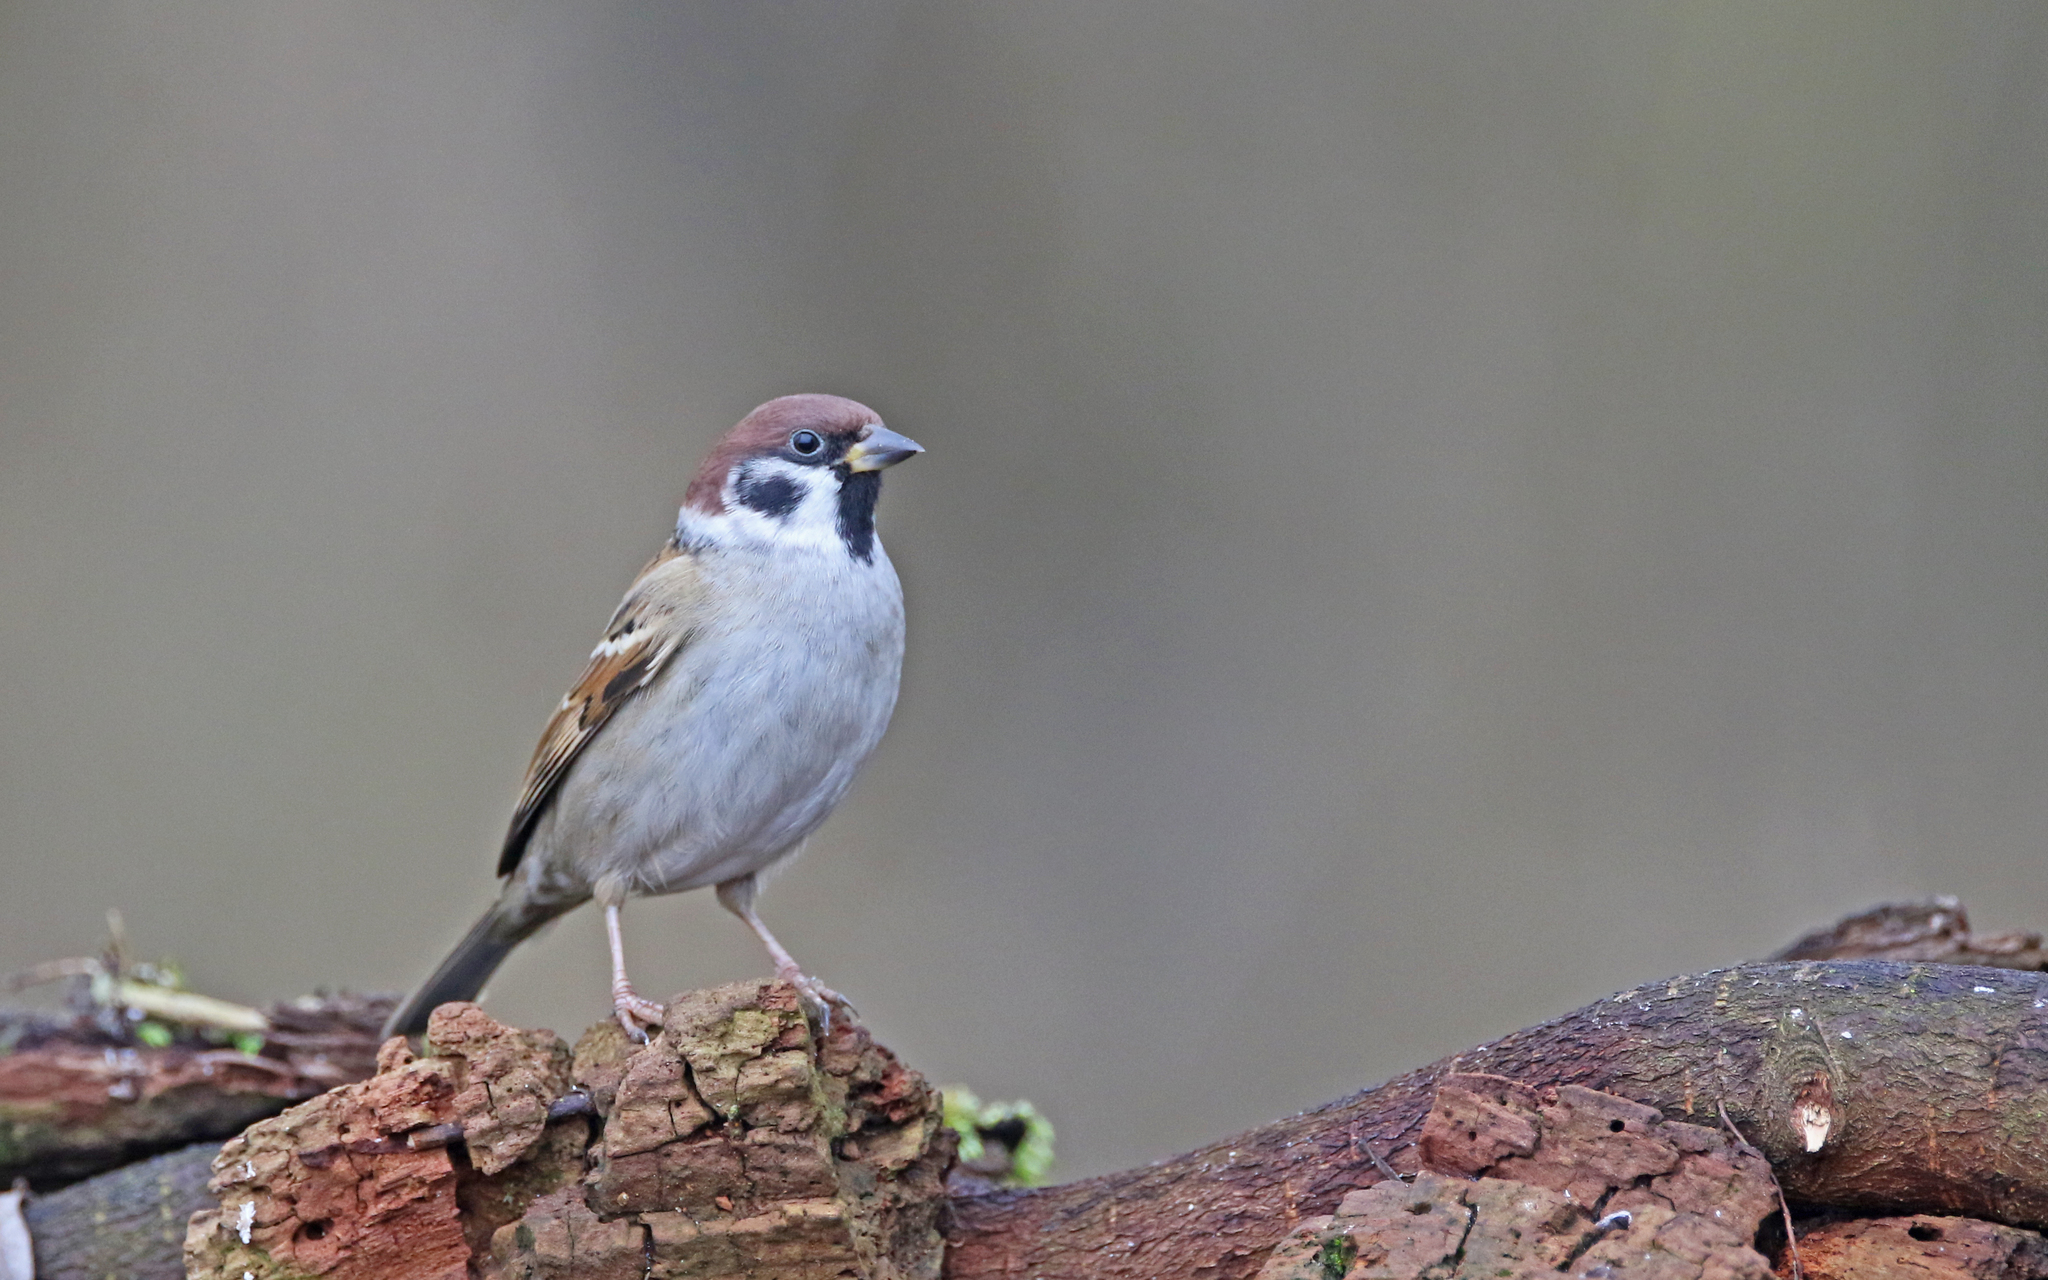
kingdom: Animalia
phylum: Chordata
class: Aves
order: Passeriformes
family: Passeridae
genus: Passer
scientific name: Passer montanus
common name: Eurasian tree sparrow
